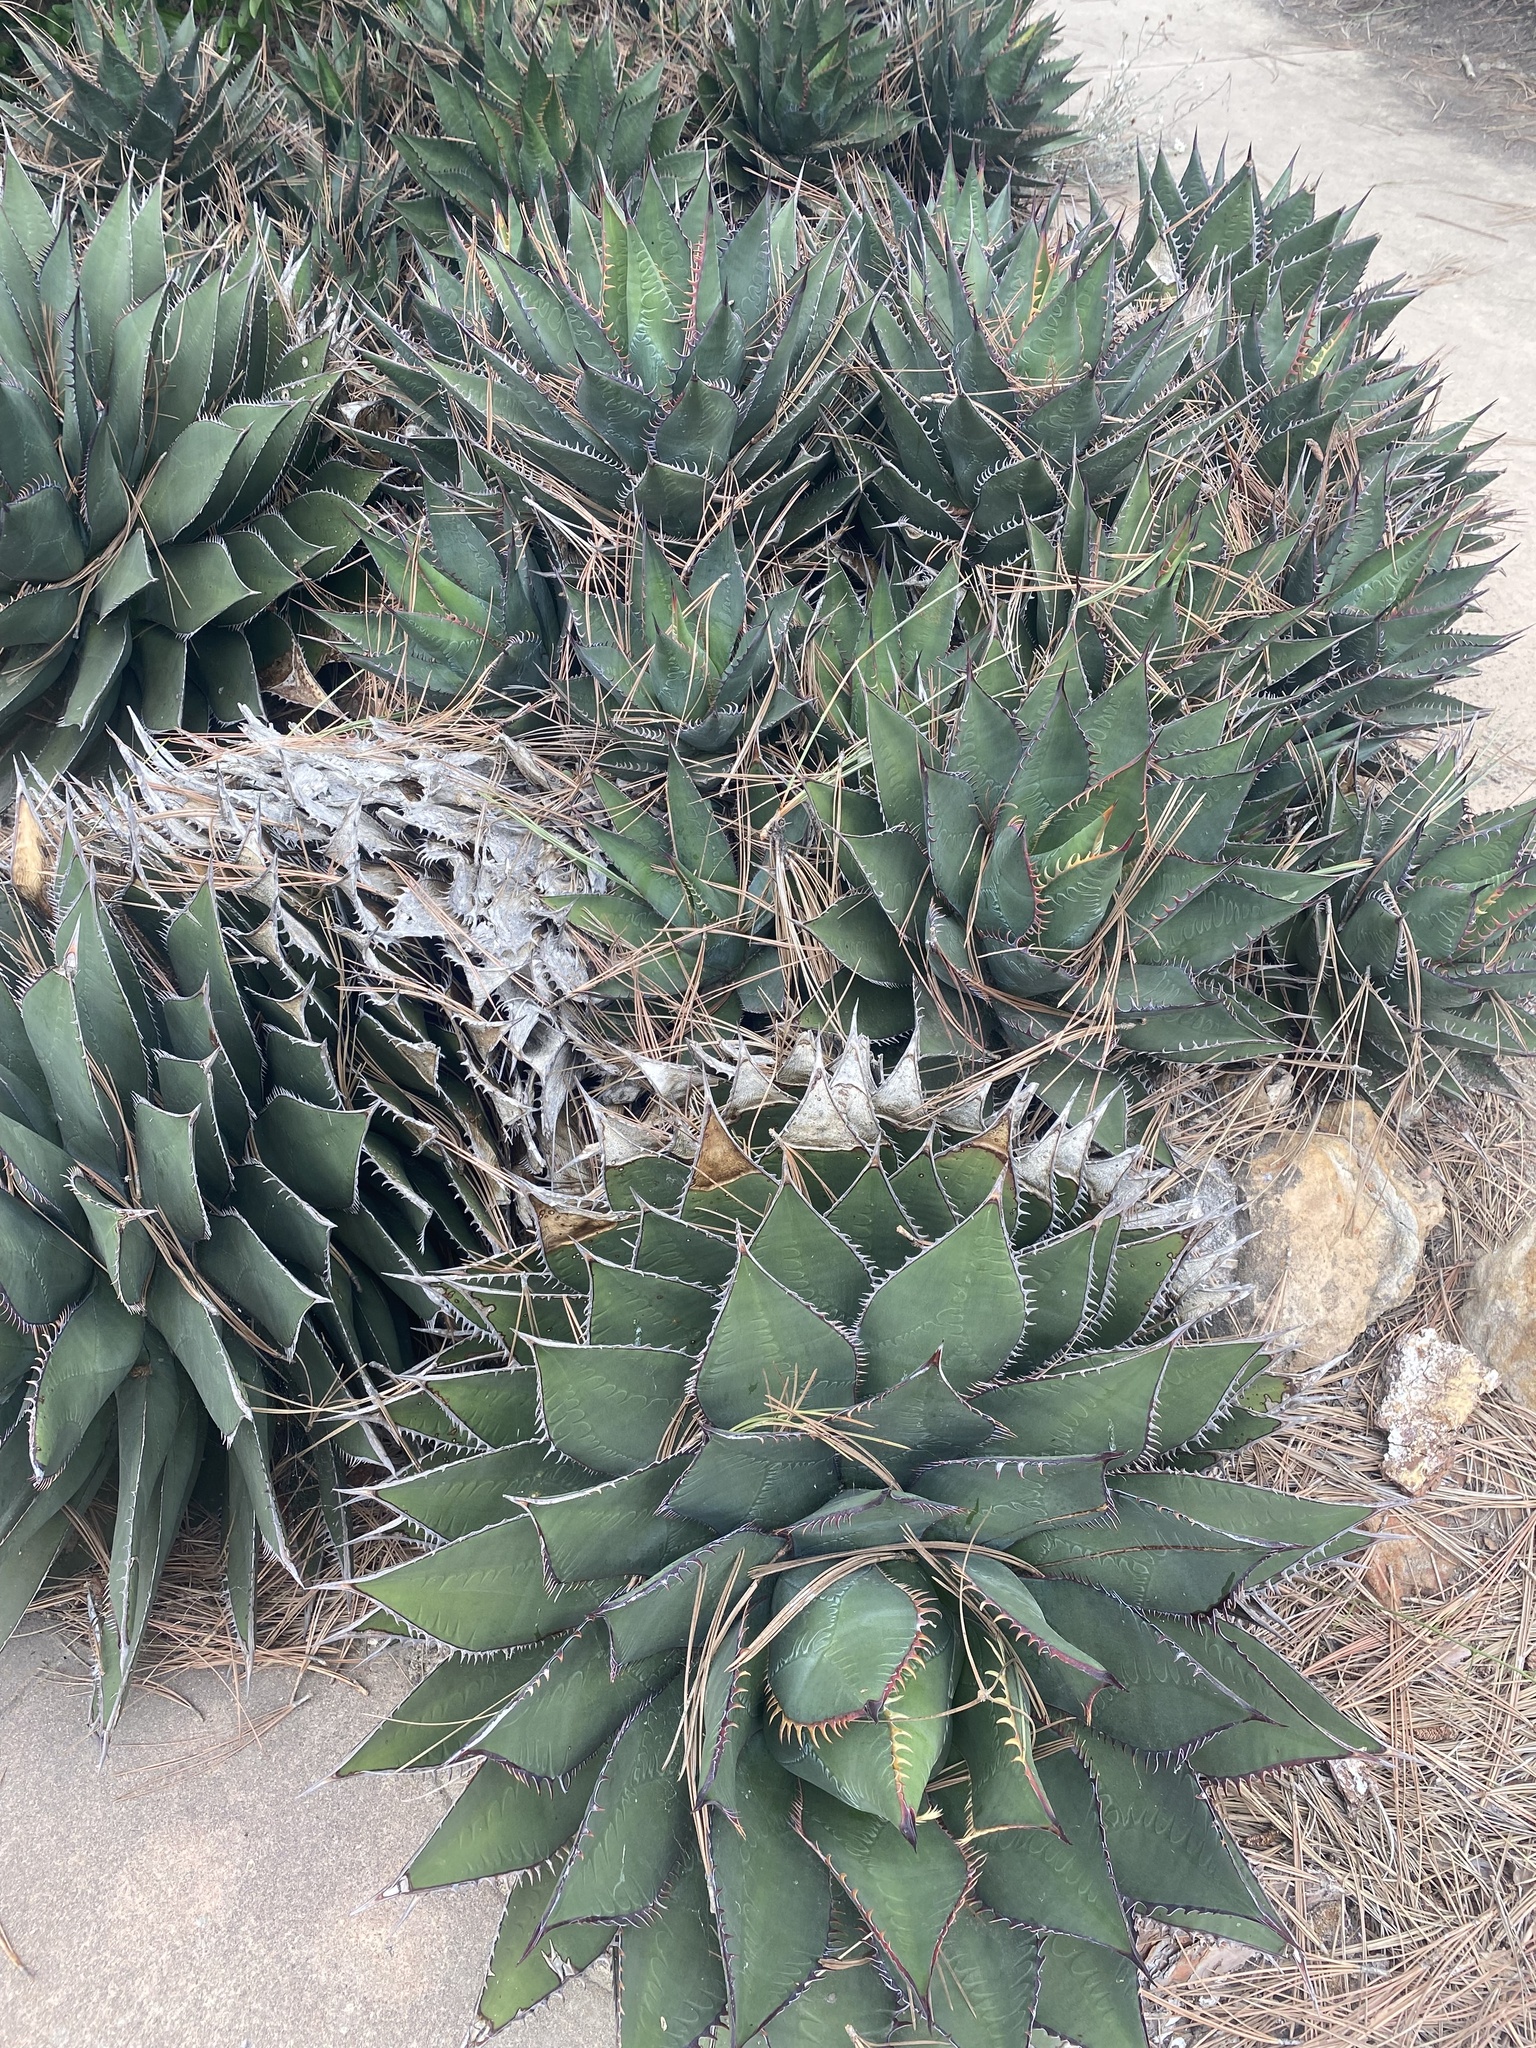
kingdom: Plantae
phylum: Tracheophyta
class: Liliopsida
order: Asparagales
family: Asparagaceae
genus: Agave
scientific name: Agave shawii
